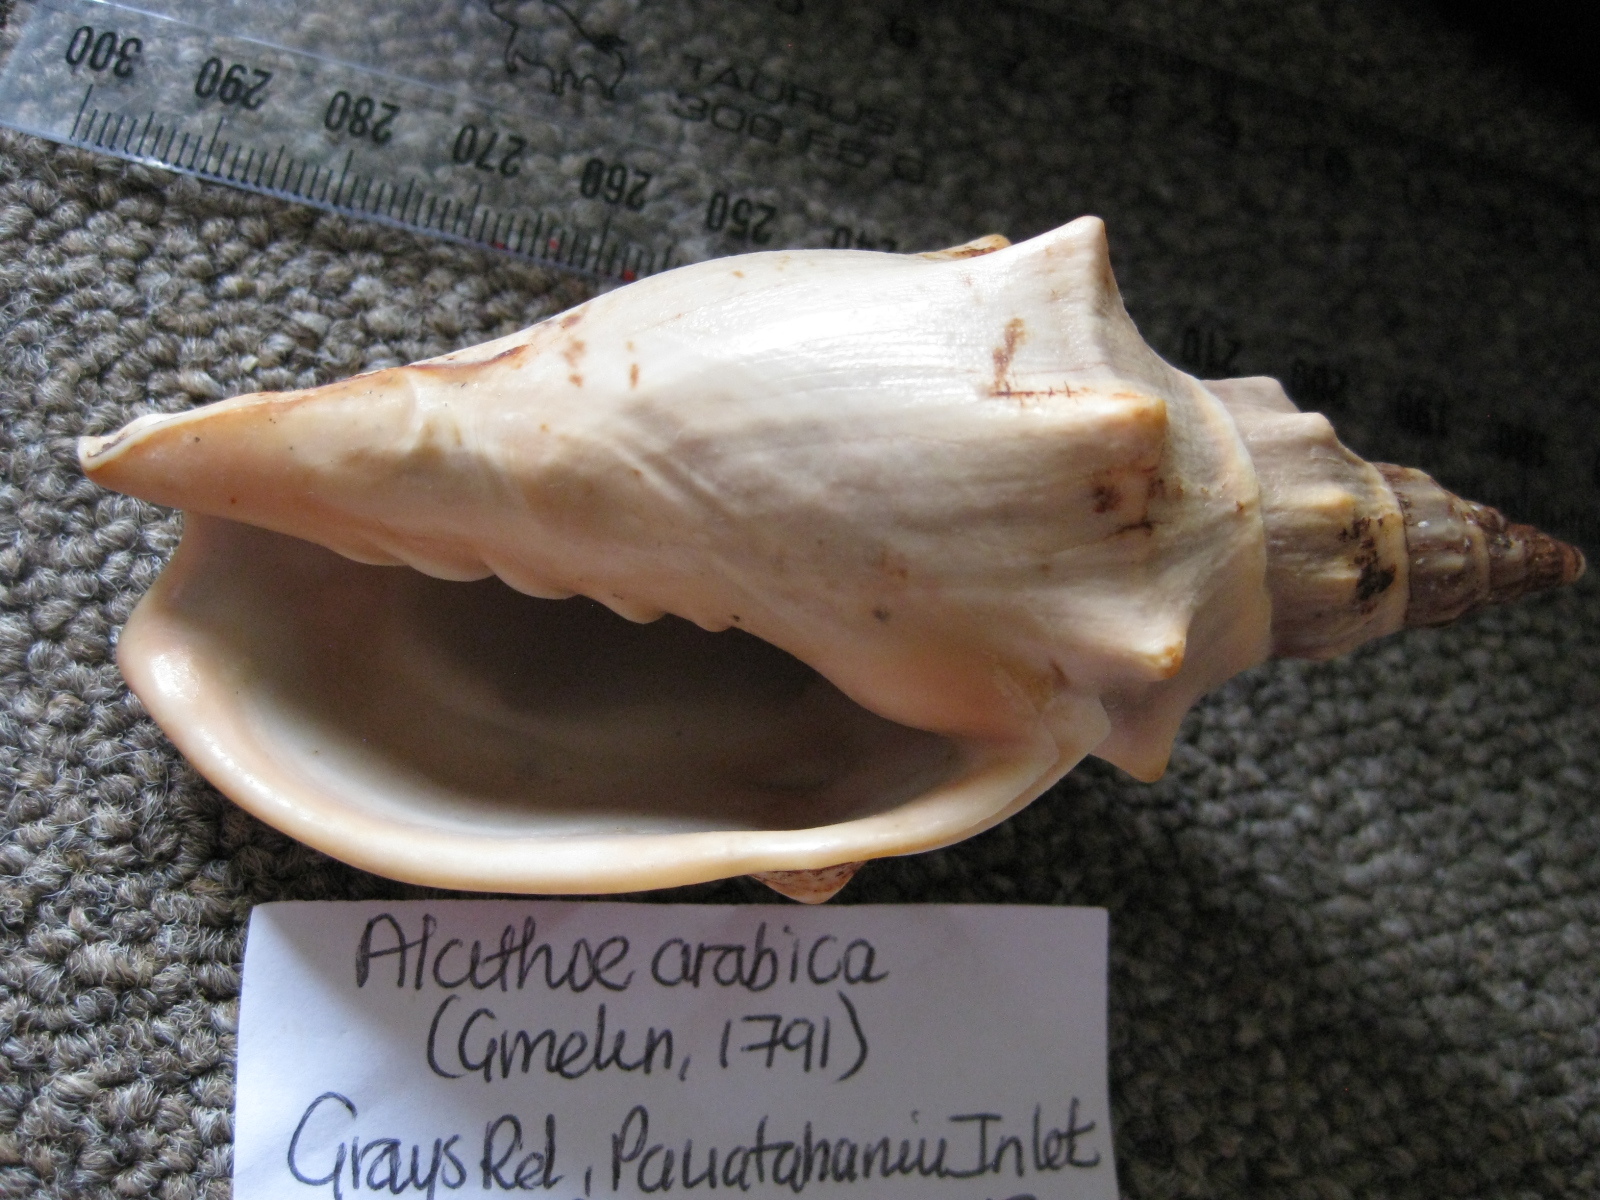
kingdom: Animalia
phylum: Mollusca
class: Gastropoda
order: Neogastropoda
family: Volutidae
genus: Alcithoe
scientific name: Alcithoe arabica
